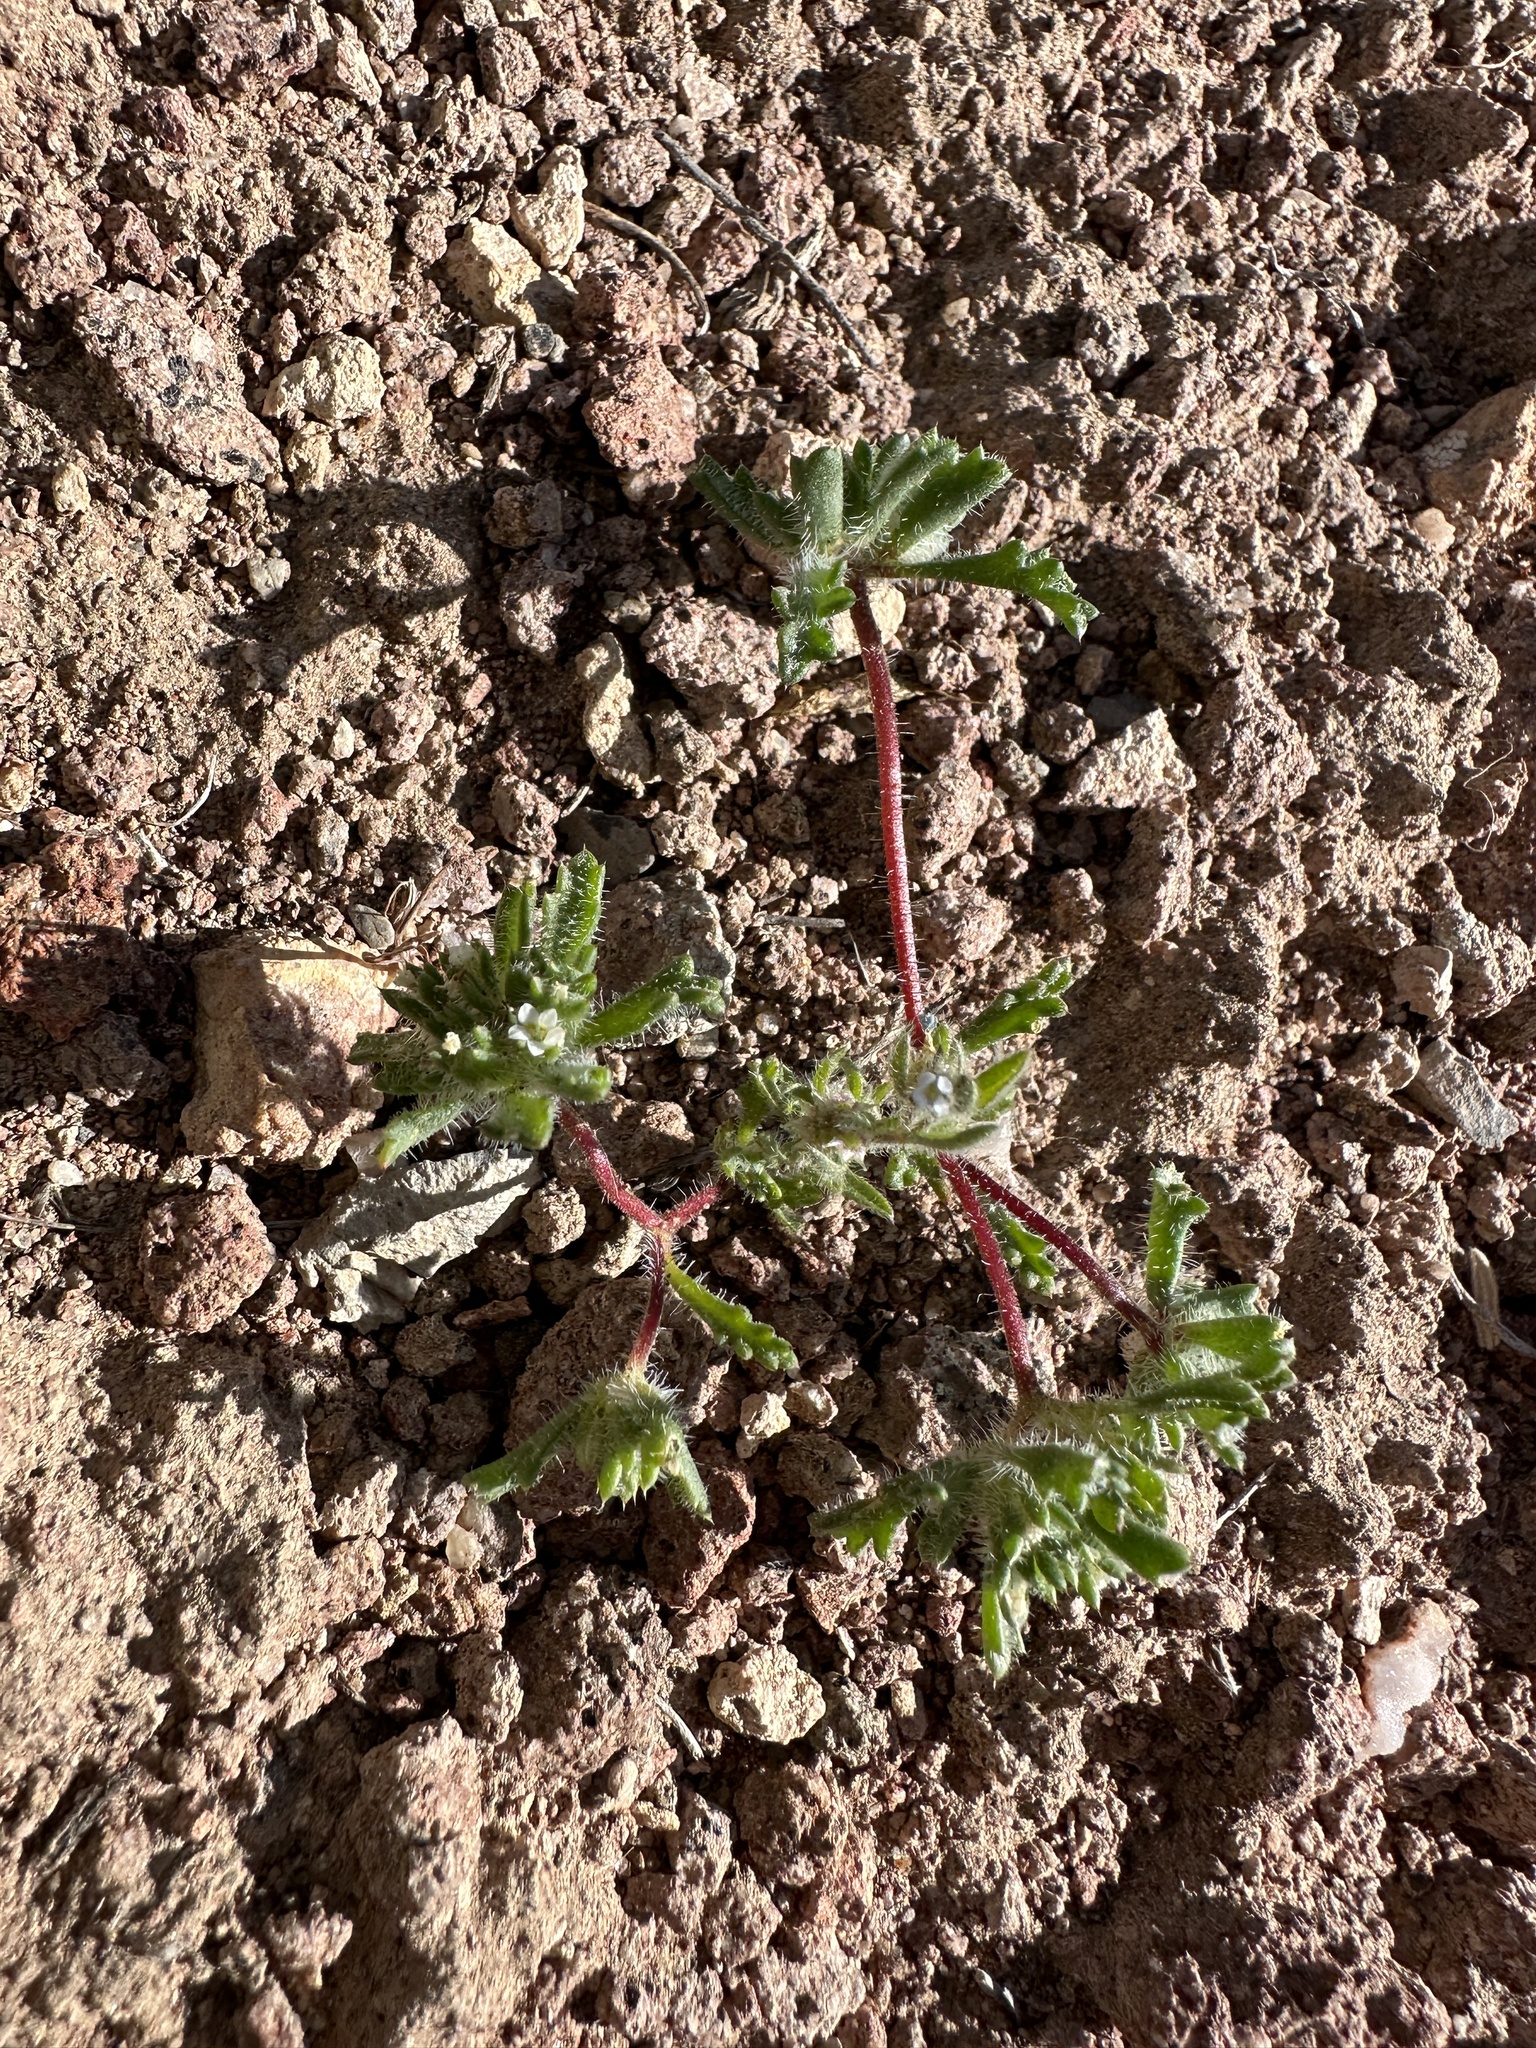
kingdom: Plantae
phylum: Tracheophyta
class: Magnoliopsida
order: Ericales
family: Polemoniaceae
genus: Ipomopsis
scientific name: Ipomopsis polycladon
